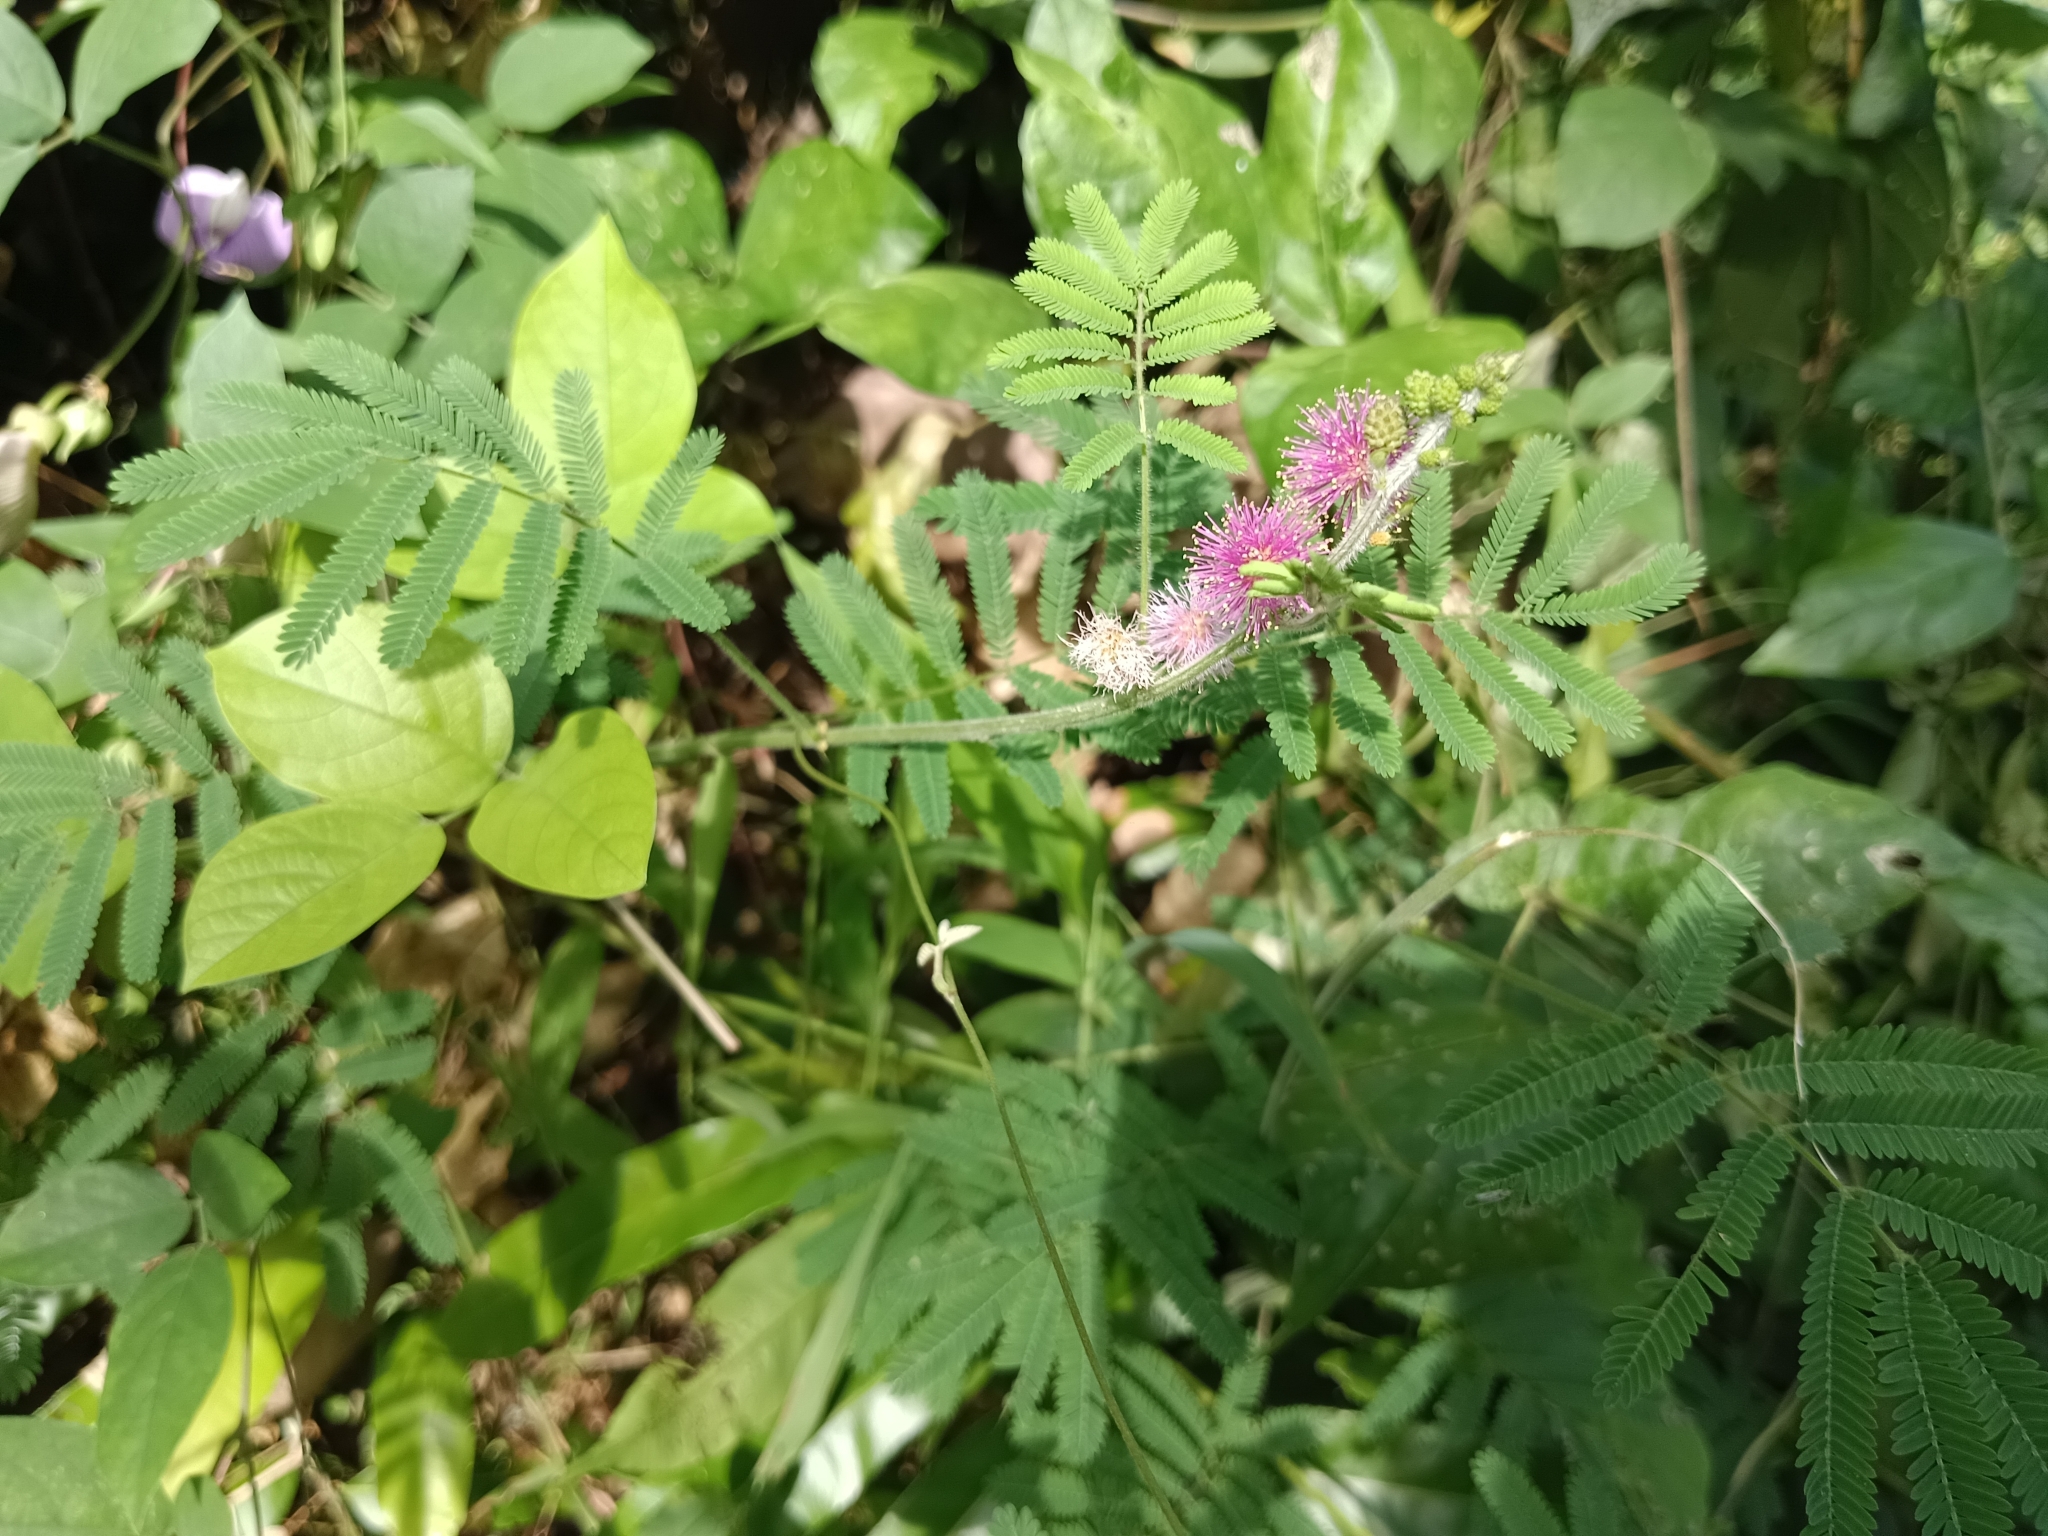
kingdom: Plantae
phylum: Tracheophyta
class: Magnoliopsida
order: Fabales
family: Fabaceae
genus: Mimosa
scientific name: Mimosa diplotricha
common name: Giant sensitive-plant
